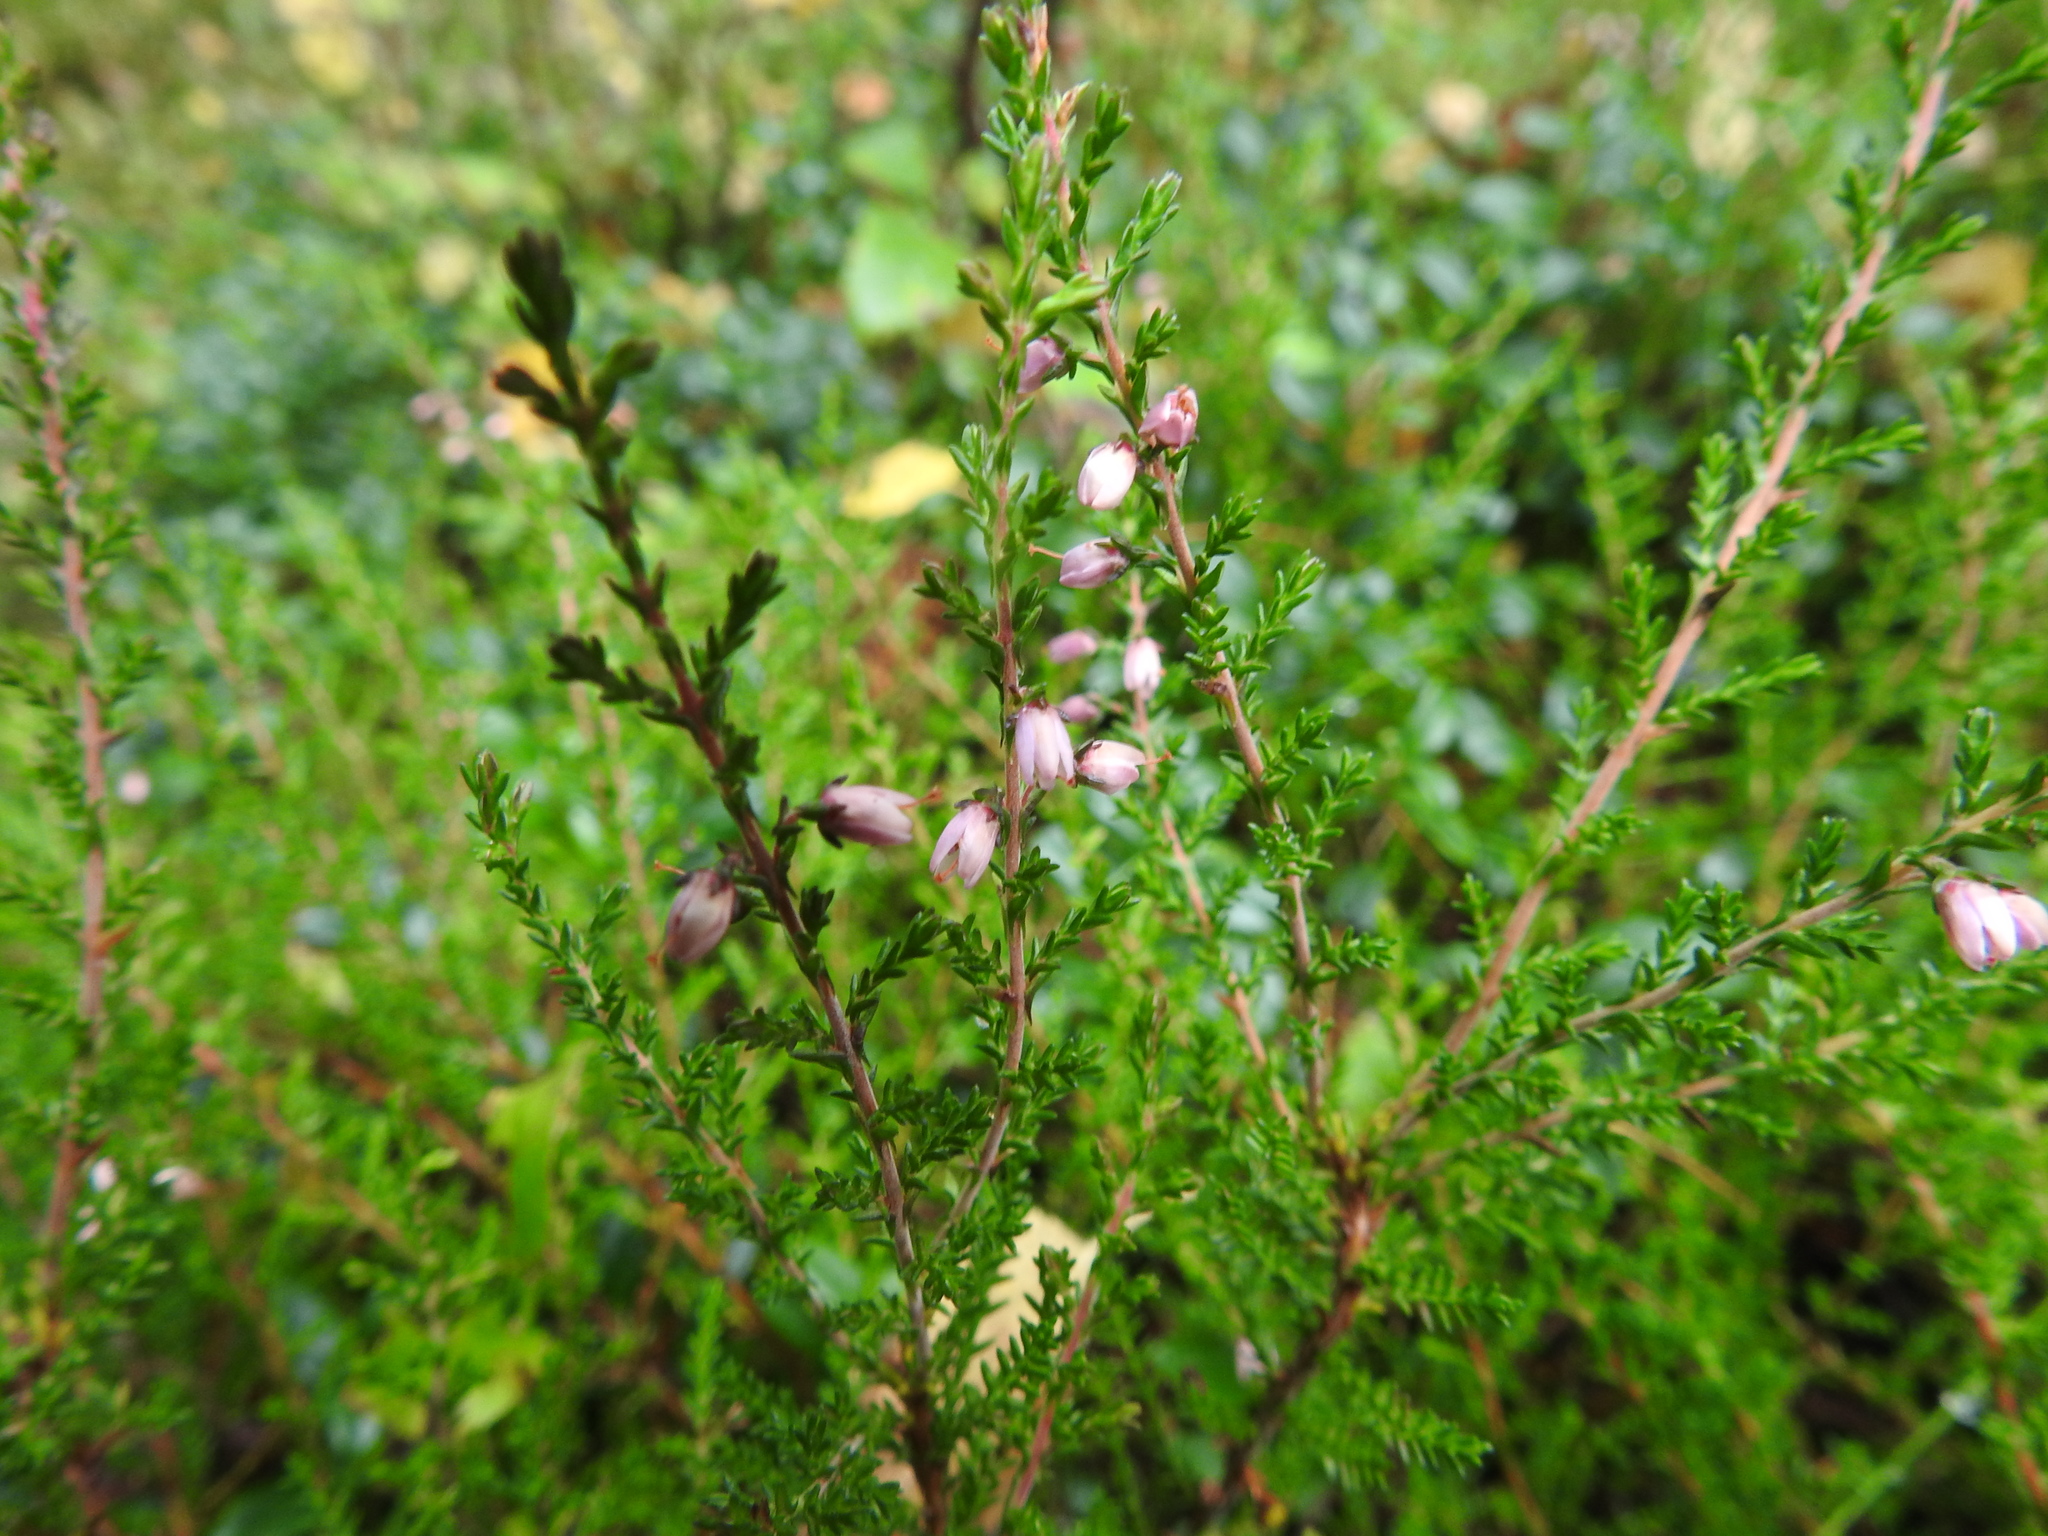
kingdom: Plantae
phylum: Tracheophyta
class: Magnoliopsida
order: Ericales
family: Ericaceae
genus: Calluna
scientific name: Calluna vulgaris
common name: Heather
